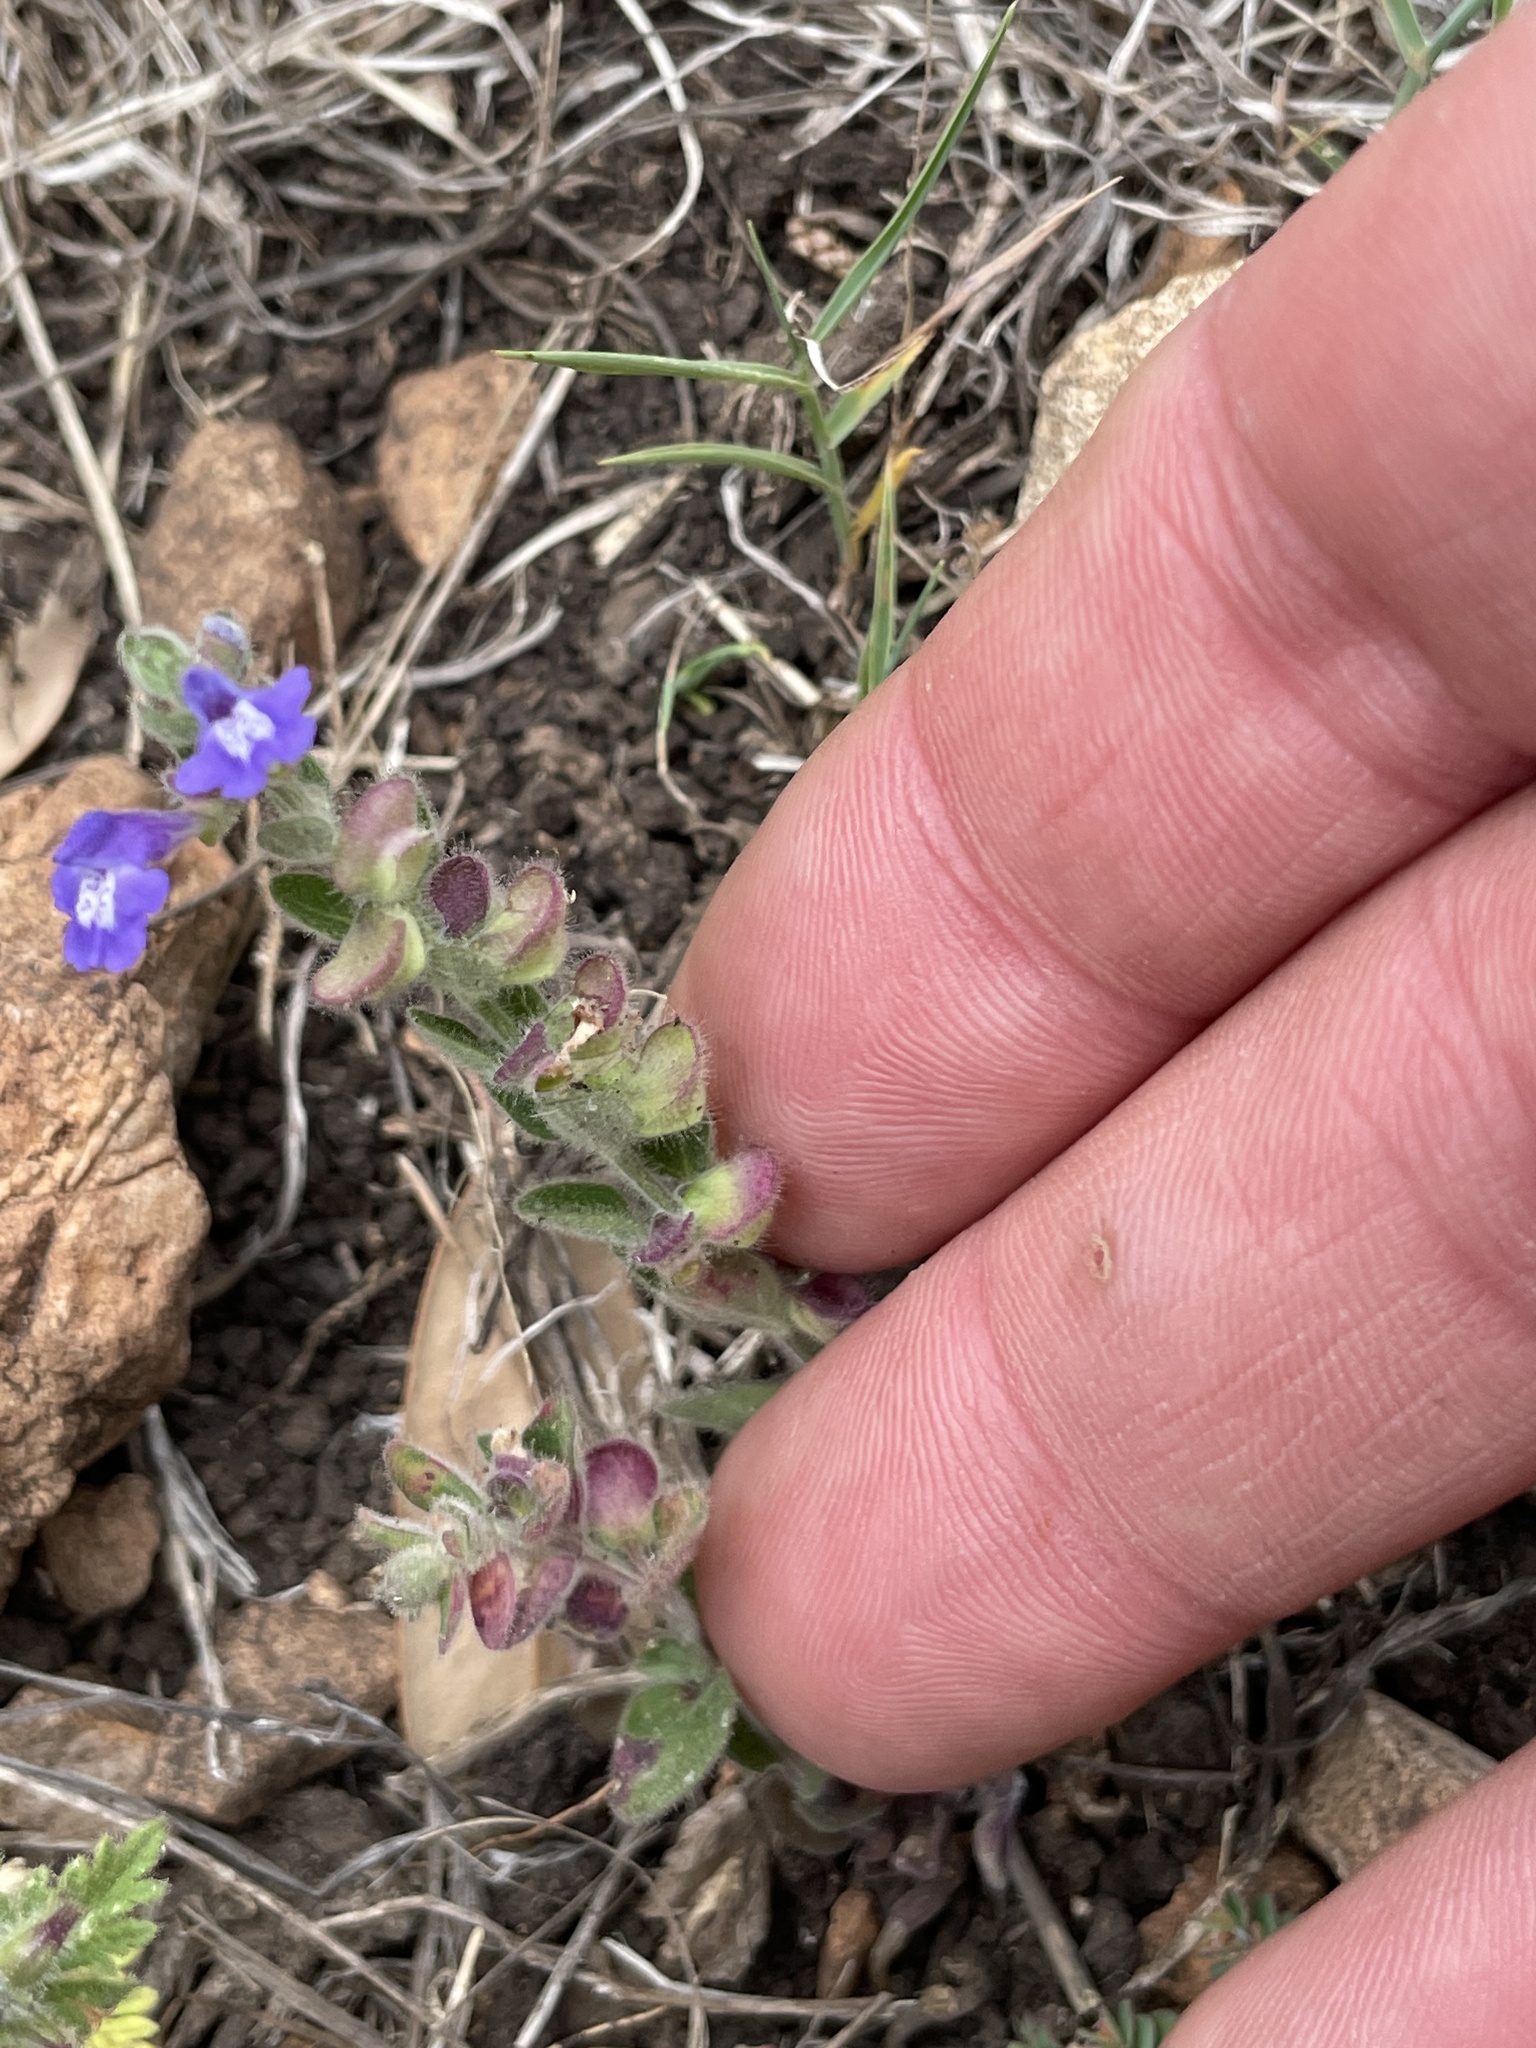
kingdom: Plantae
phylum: Tracheophyta
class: Magnoliopsida
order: Lamiales
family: Lamiaceae
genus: Scutellaria
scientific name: Scutellaria drummondii
